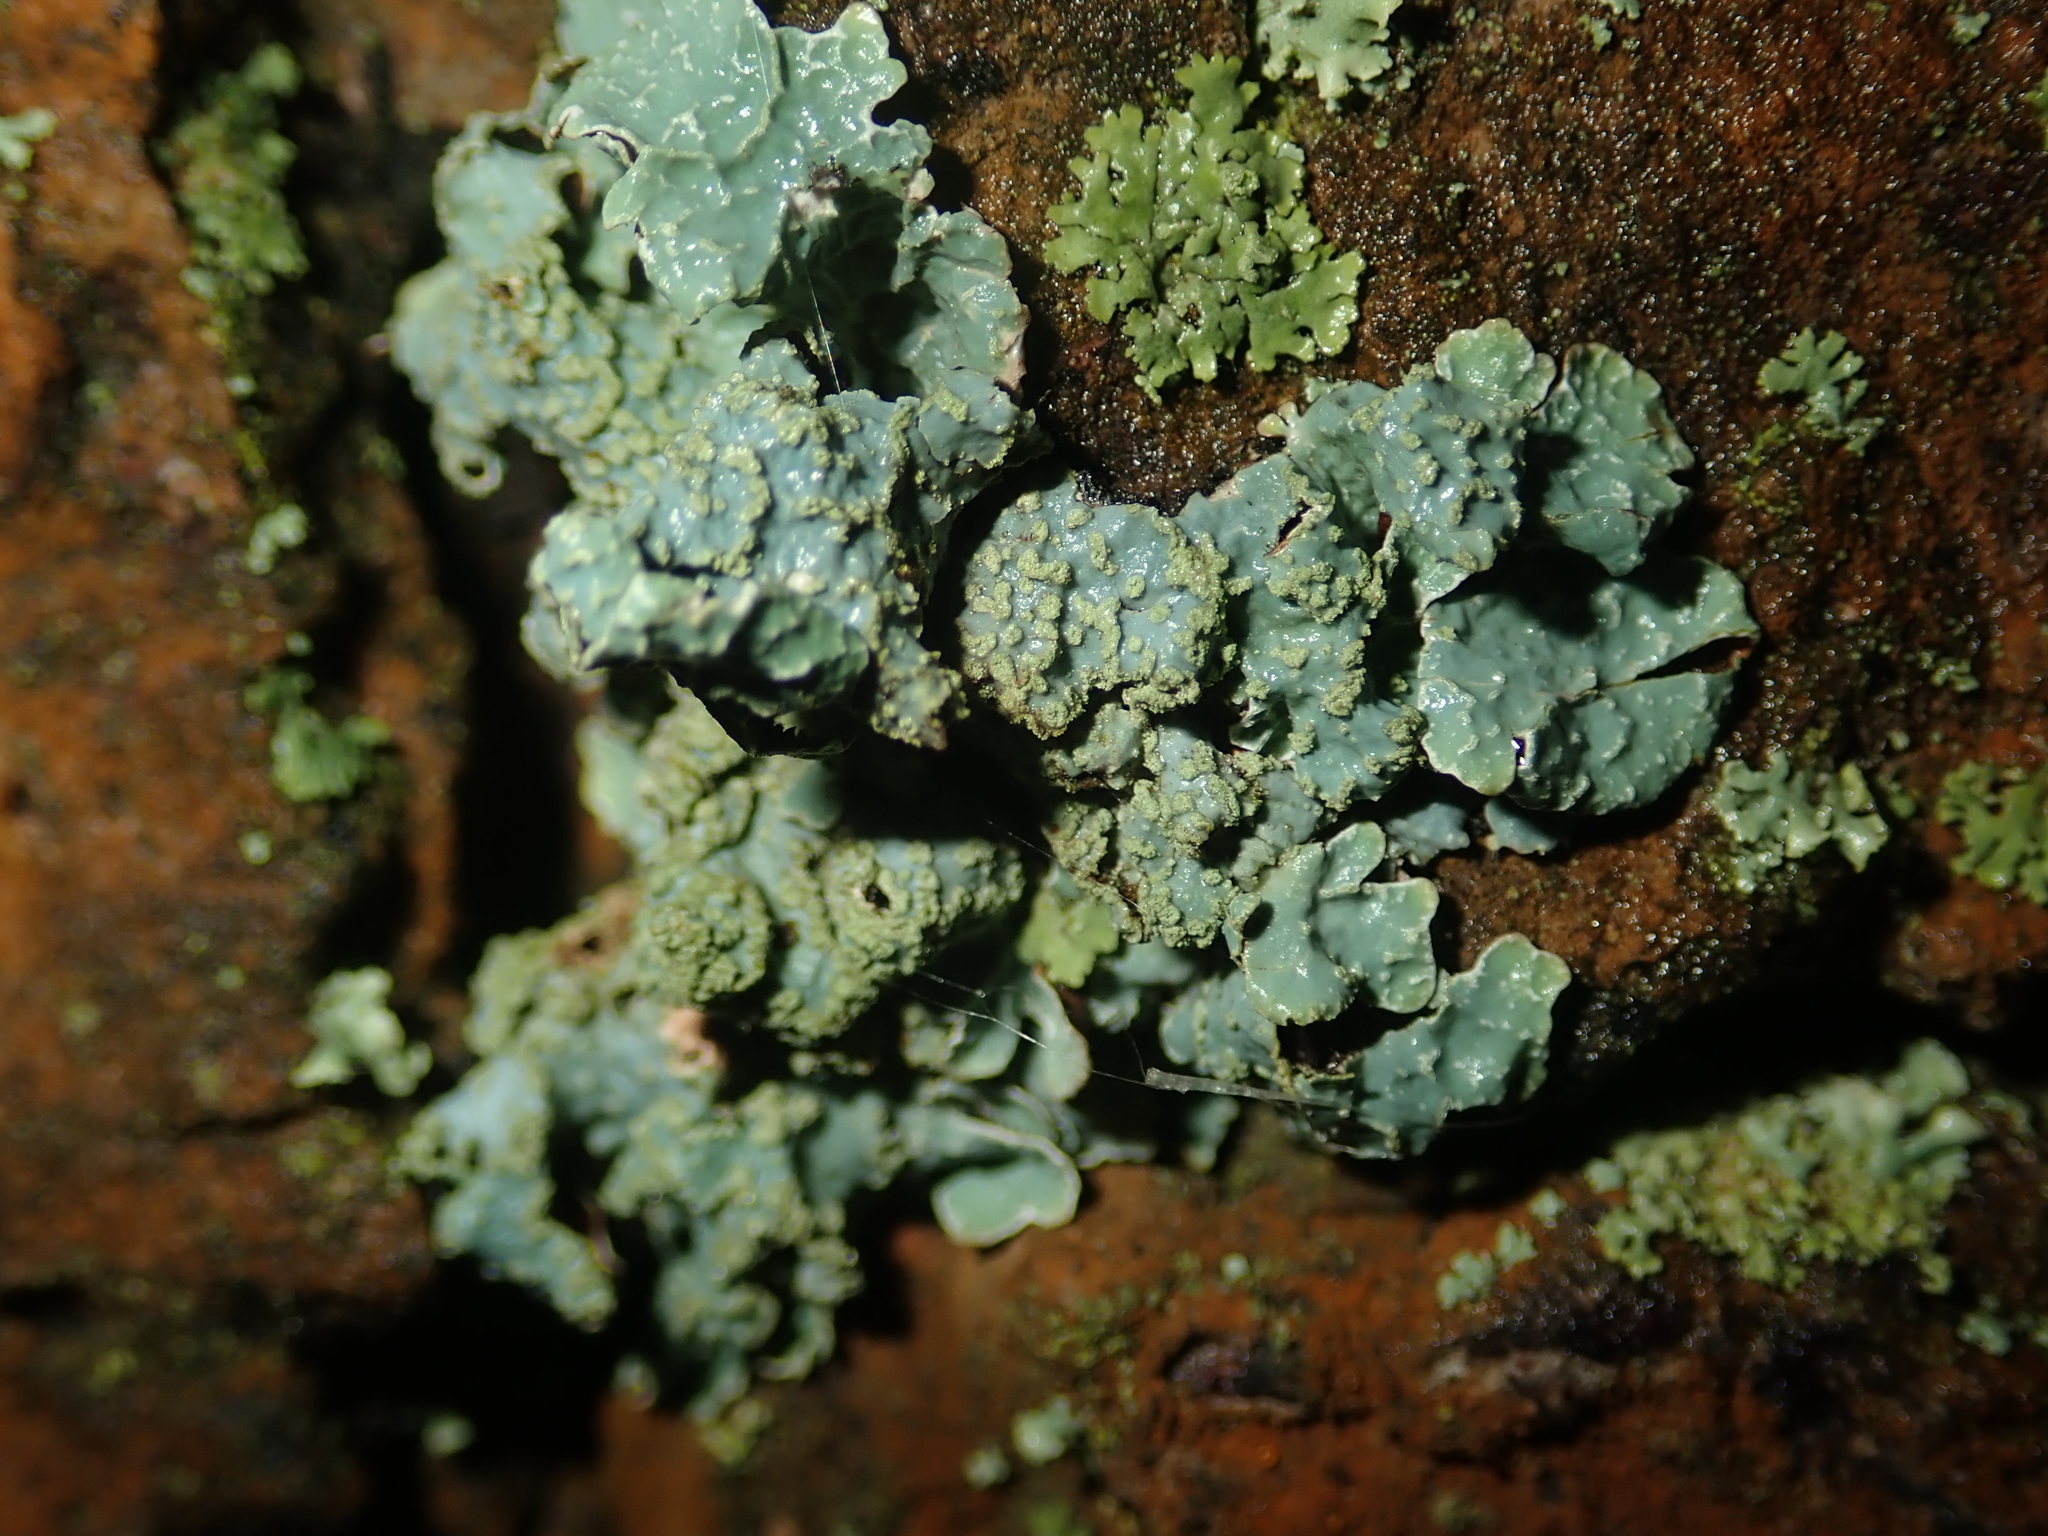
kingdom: Fungi
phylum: Ascomycota
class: Lecanoromycetes
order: Lecanorales
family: Parmeliaceae
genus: Parmelia
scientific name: Parmelia sulcata
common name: Netted shield lichen
